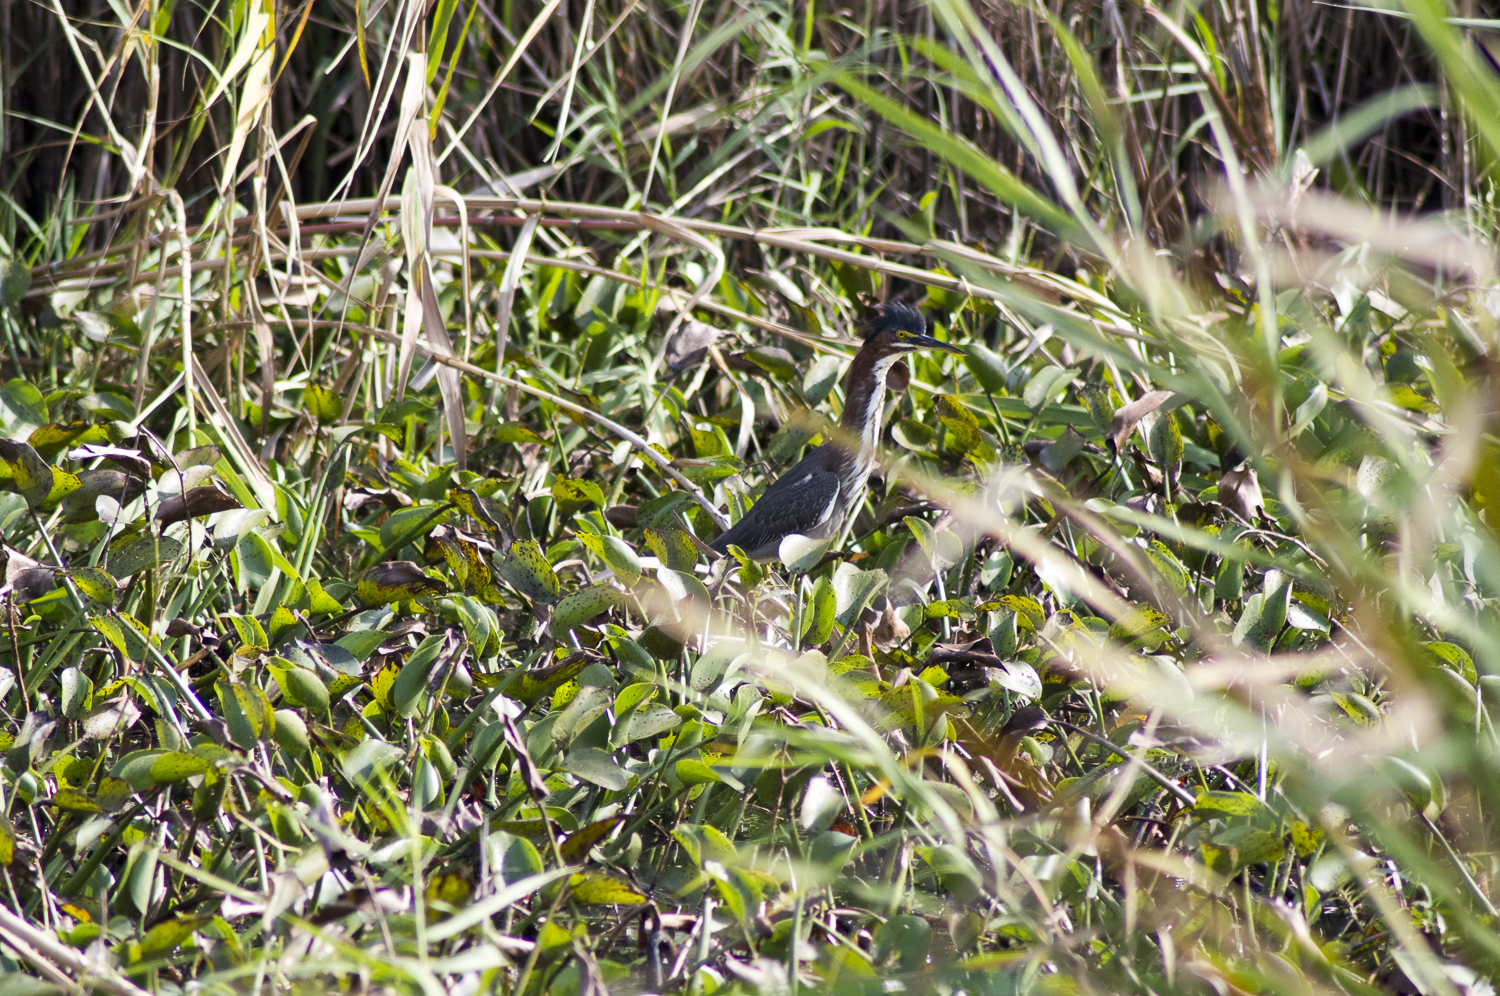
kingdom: Animalia
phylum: Chordata
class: Aves
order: Pelecaniformes
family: Ardeidae
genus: Butorides
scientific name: Butorides virescens
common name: Green heron
